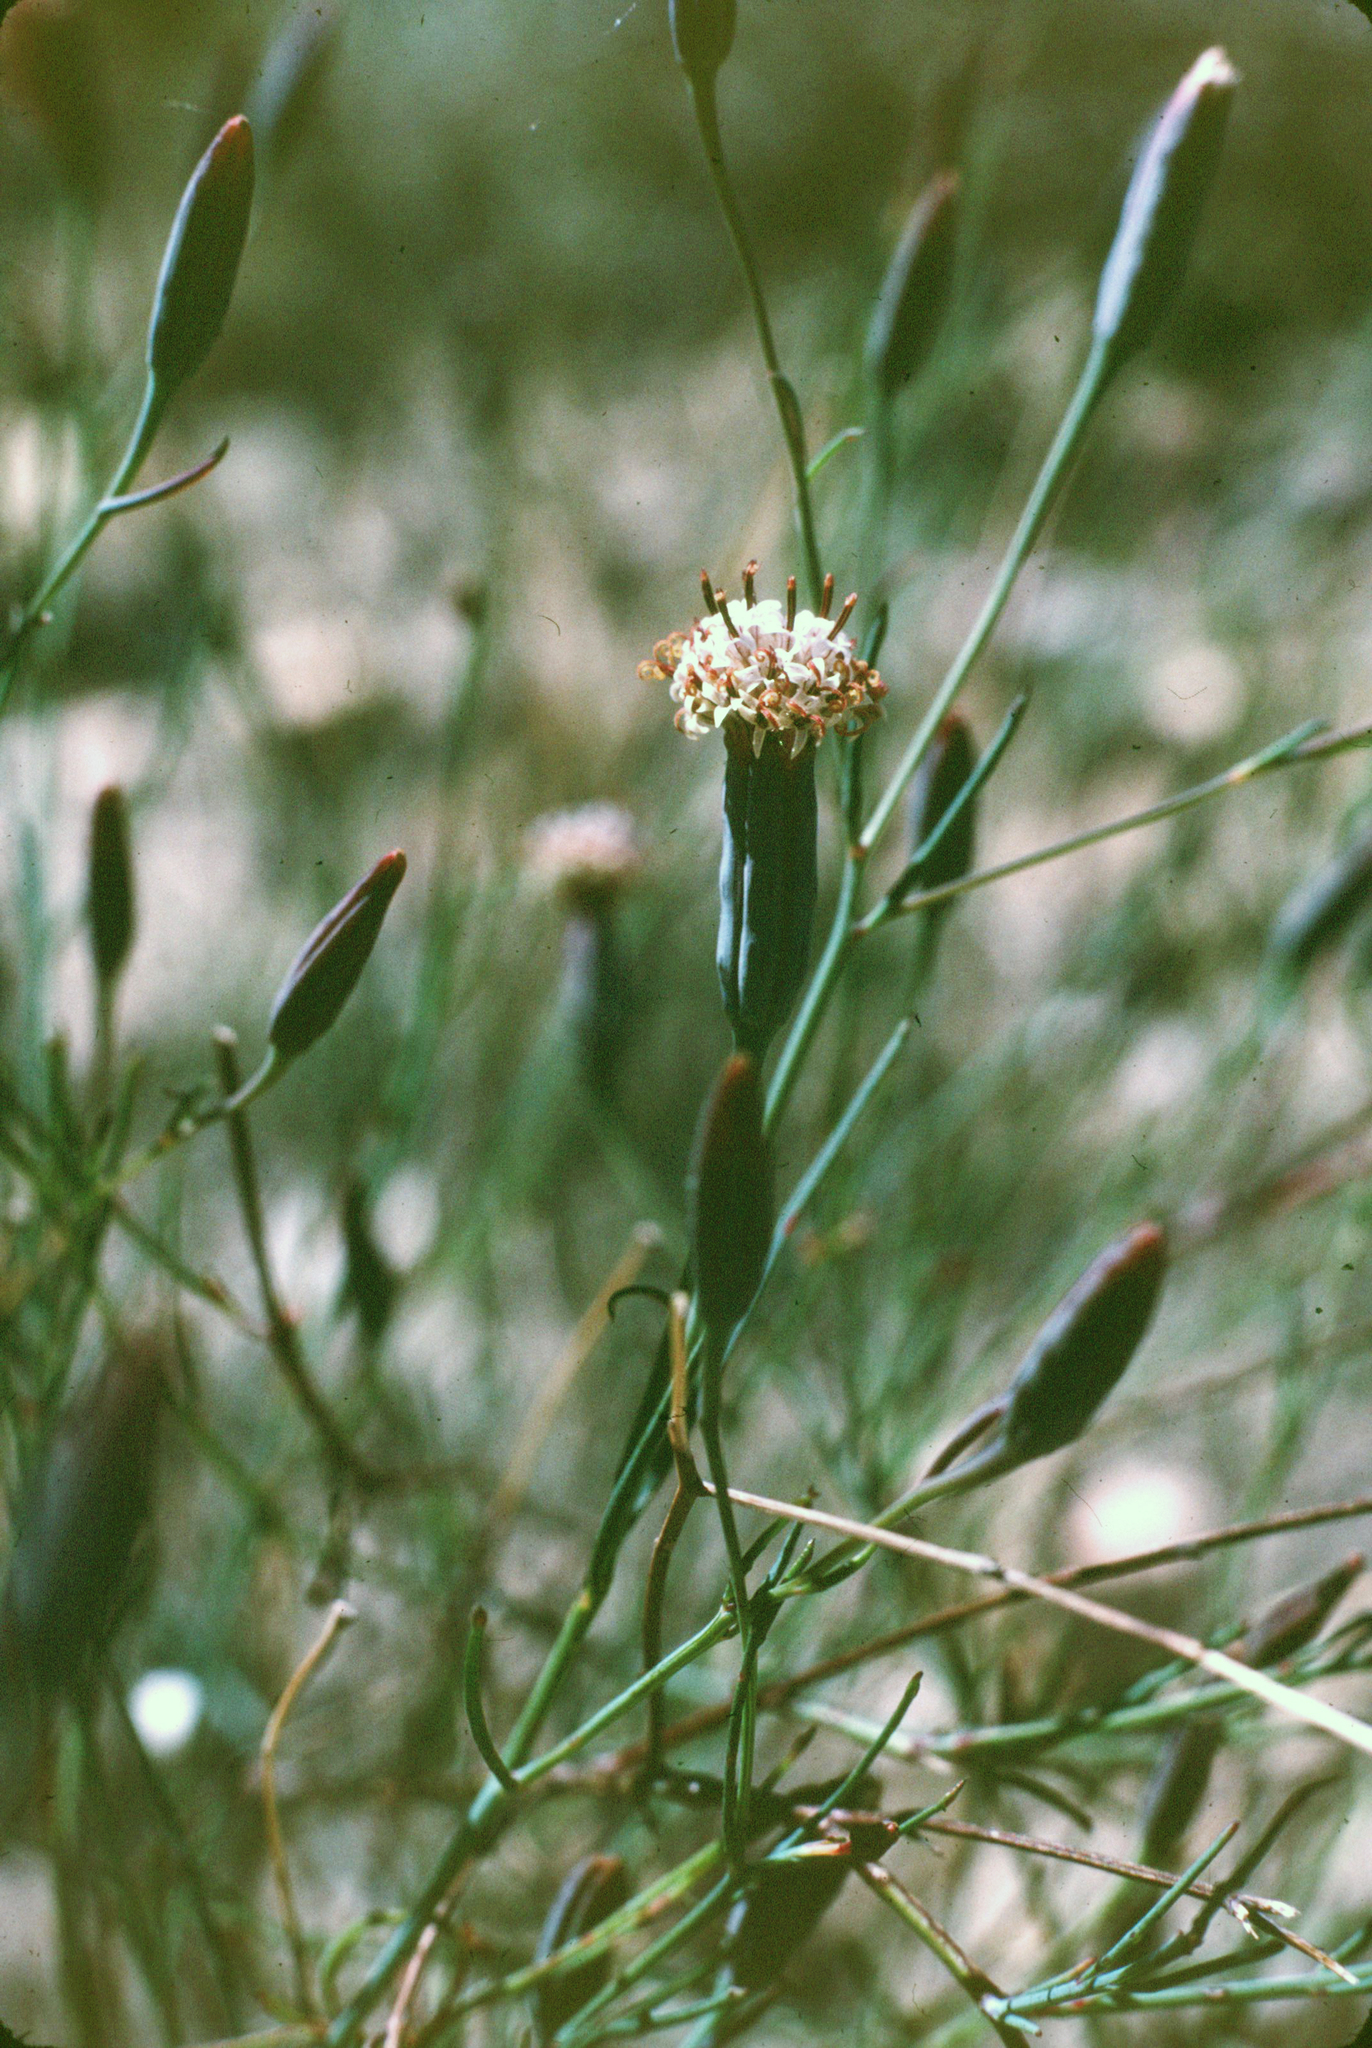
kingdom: Plantae
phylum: Tracheophyta
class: Magnoliopsida
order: Asterales
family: Asteraceae
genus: Porophyllum
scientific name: Porophyllum gracile
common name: Odora
